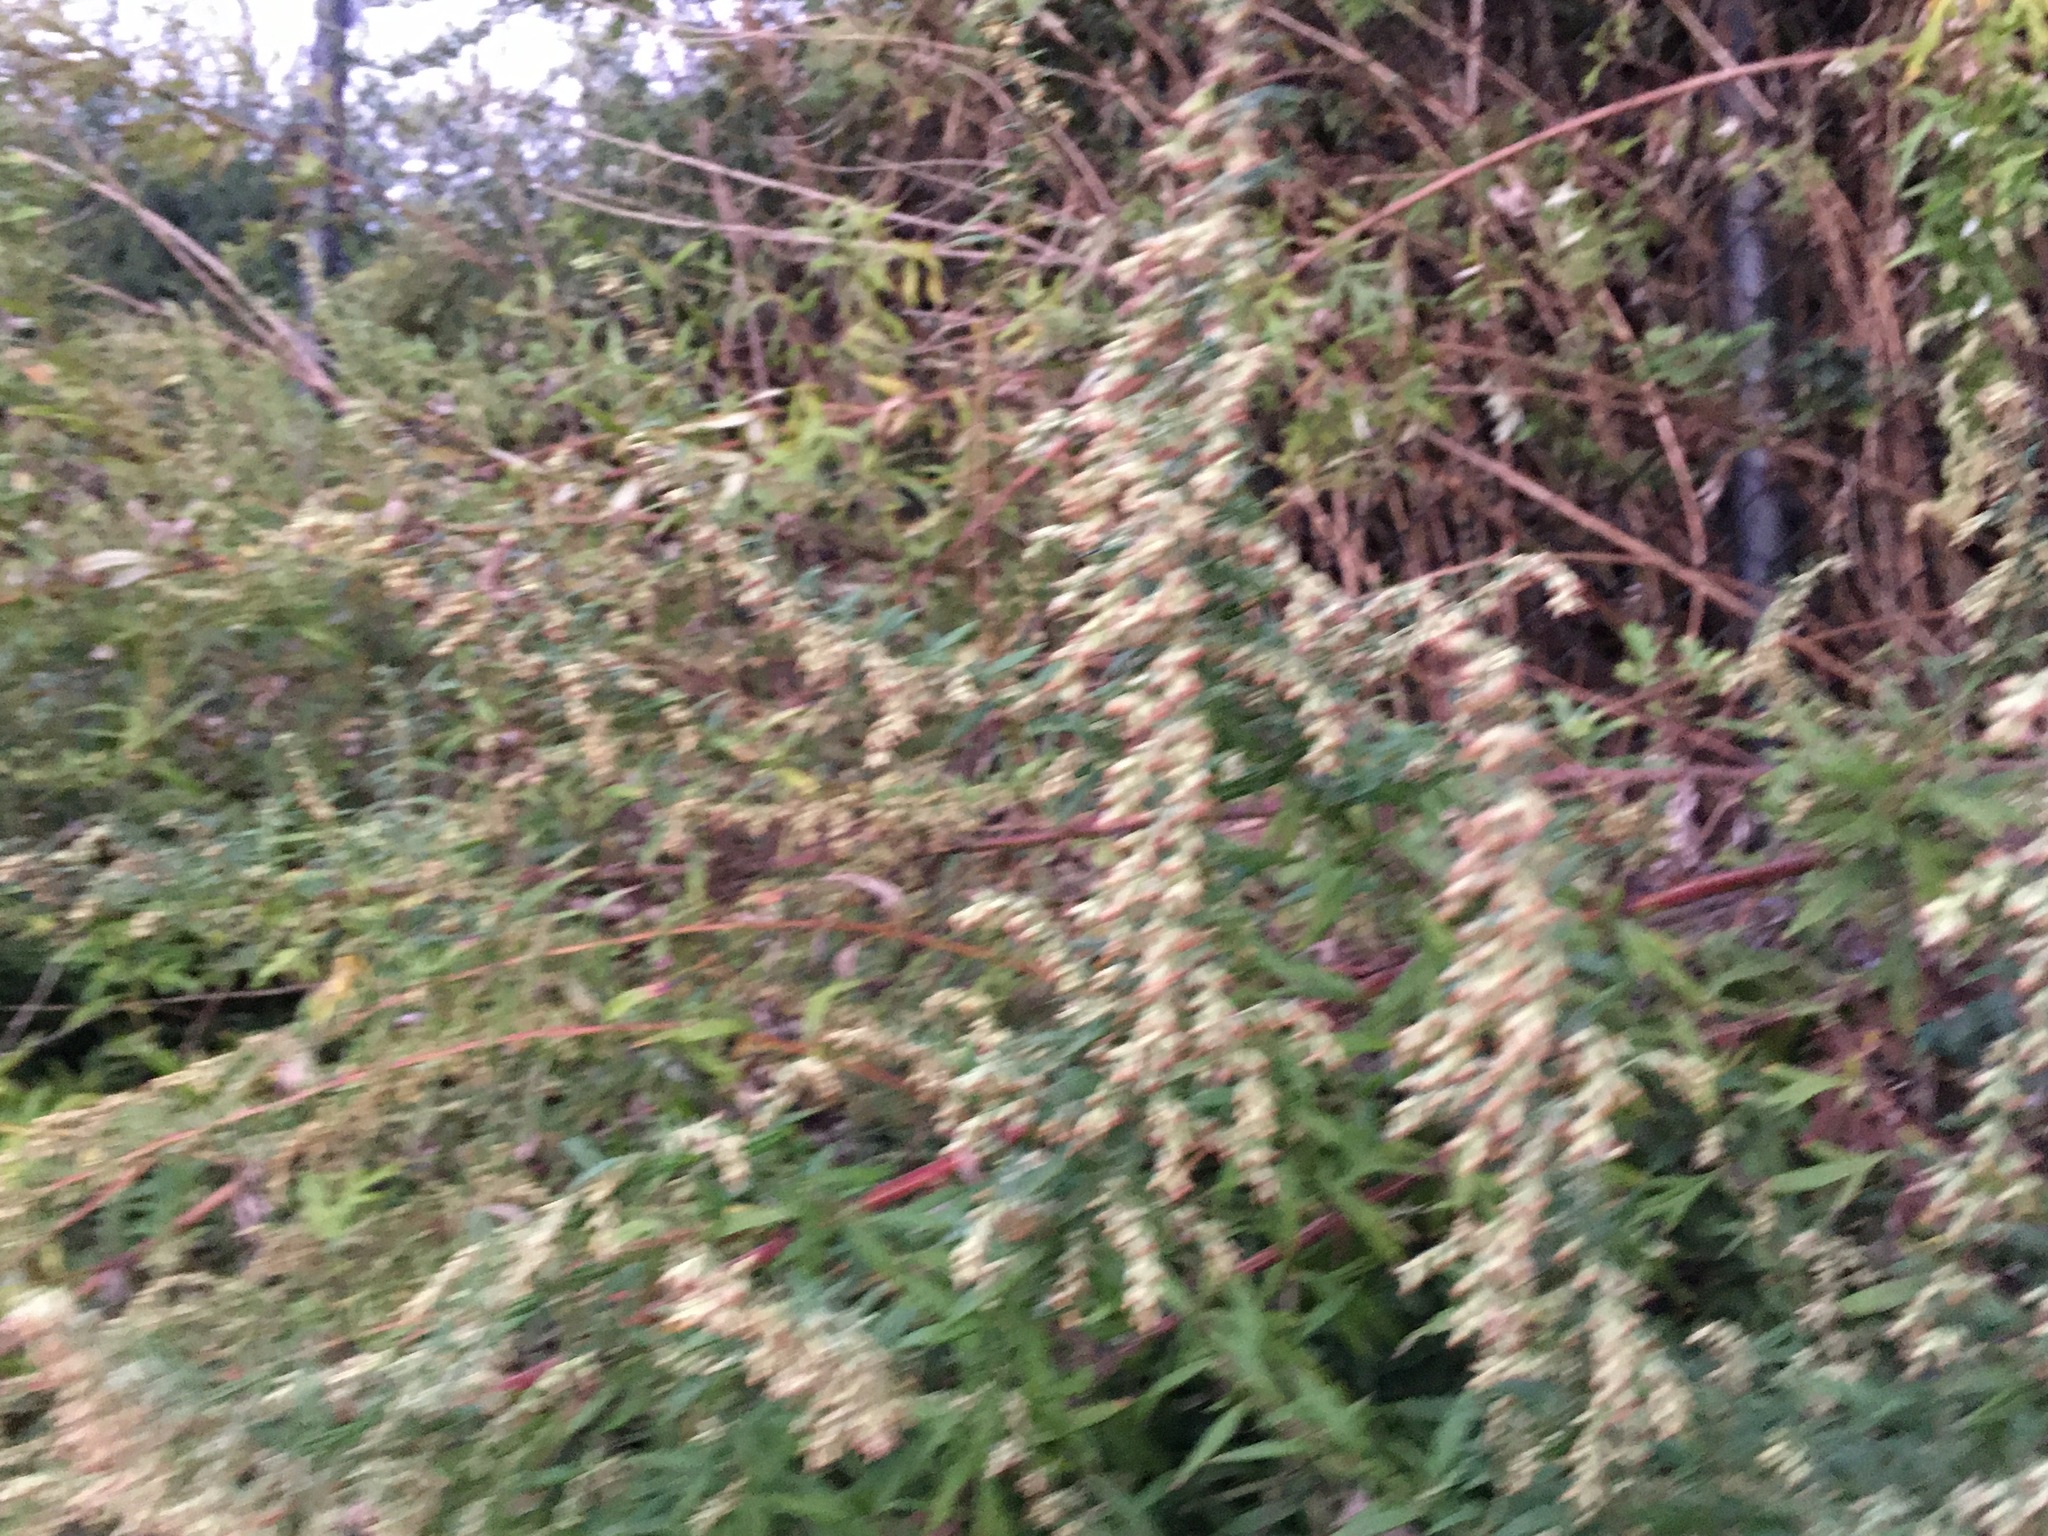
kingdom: Plantae
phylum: Tracheophyta
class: Magnoliopsida
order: Asterales
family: Asteraceae
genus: Artemisia
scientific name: Artemisia vulgaris
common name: Mugwort
